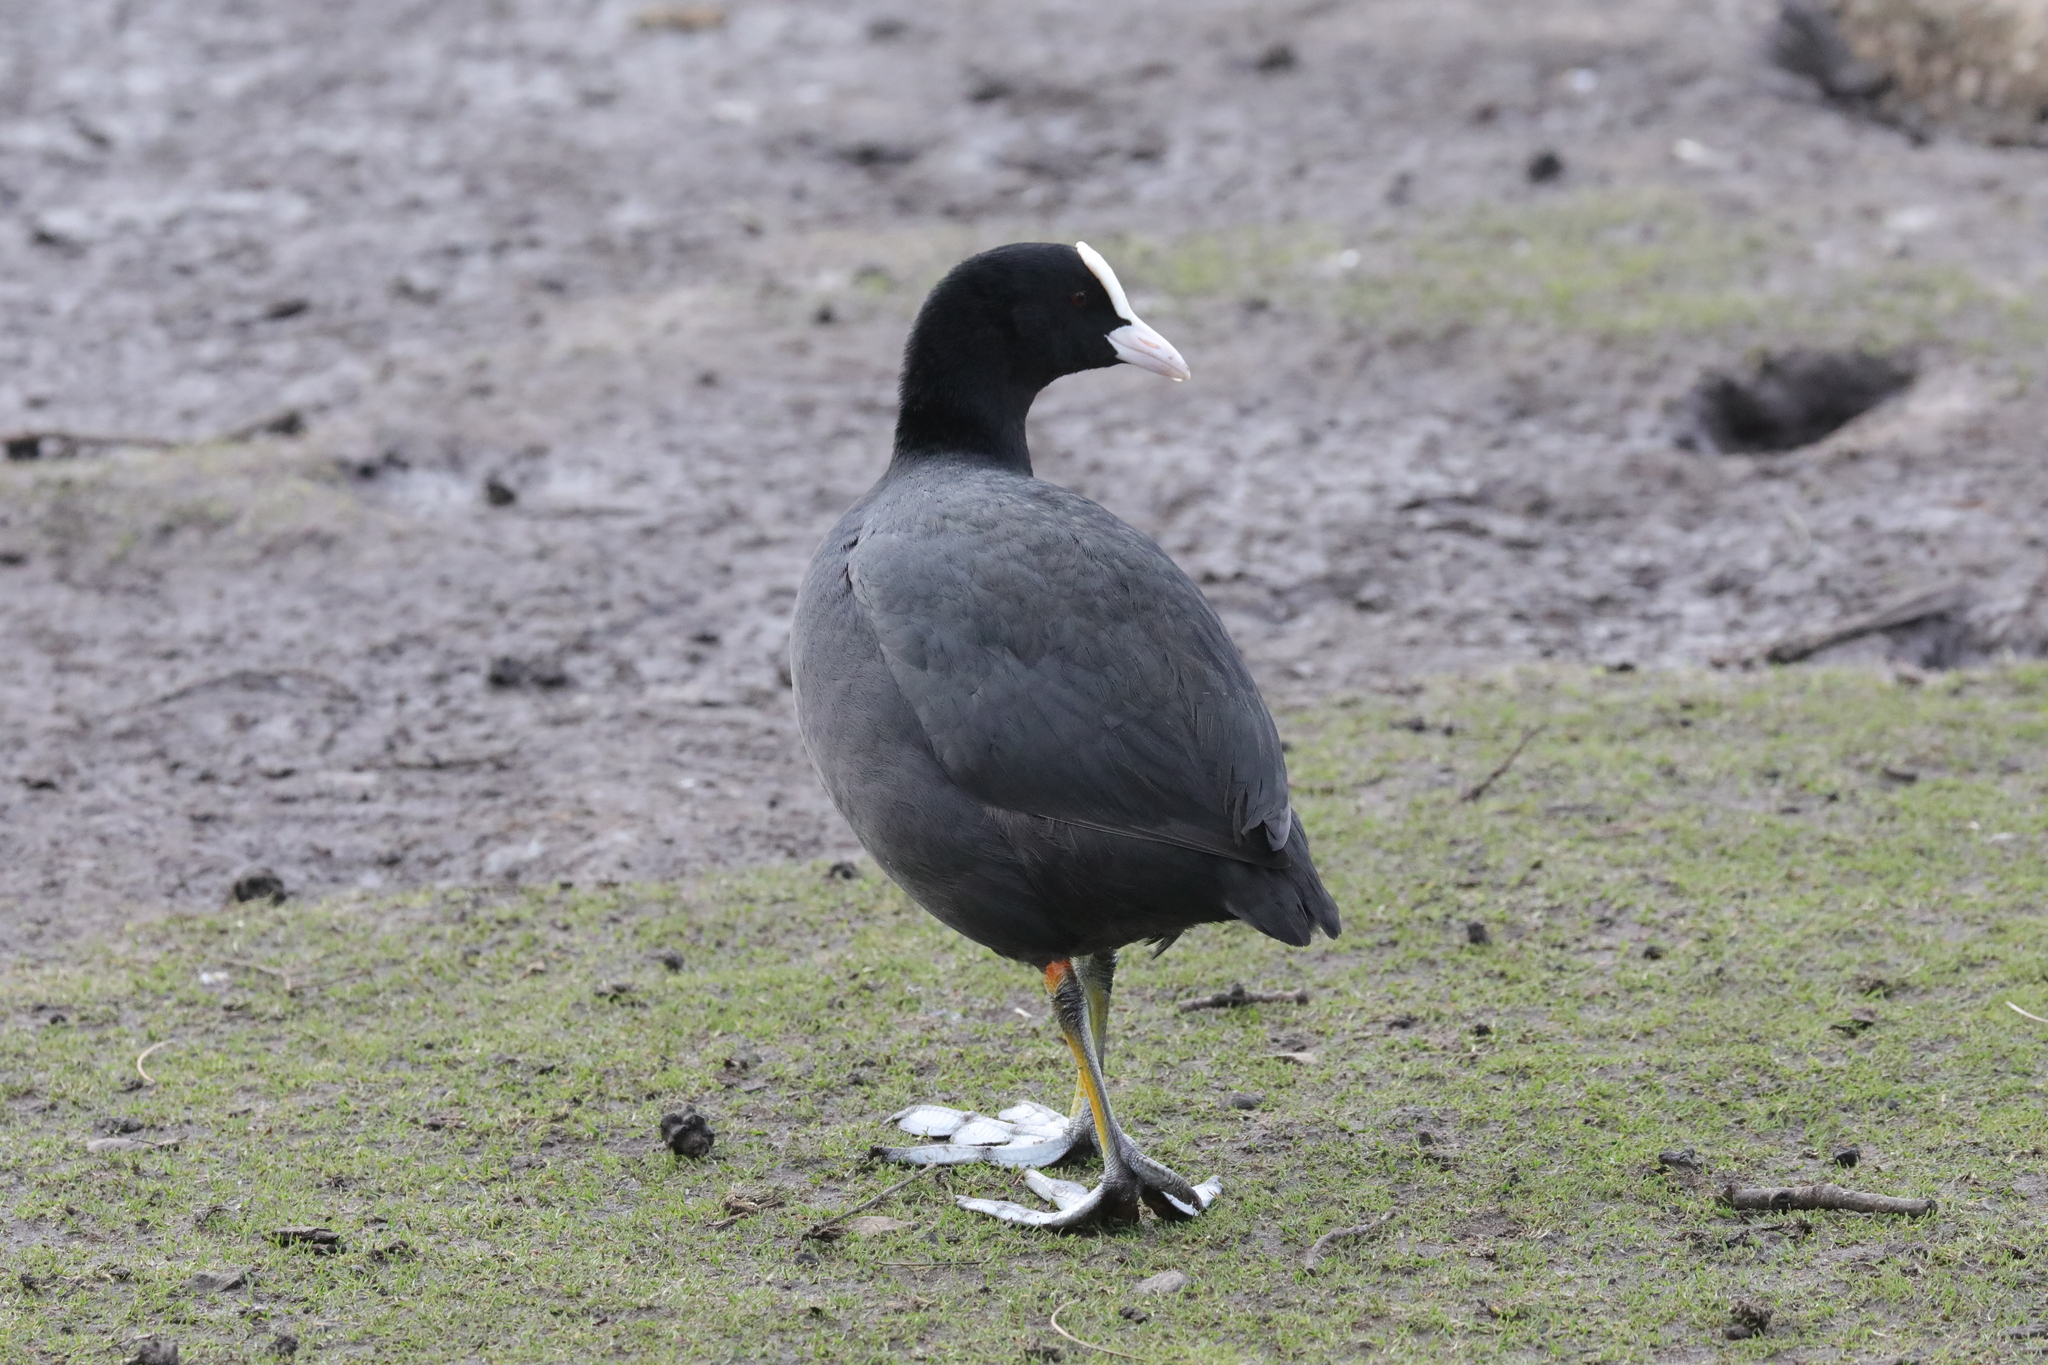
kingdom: Animalia
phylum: Chordata
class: Aves
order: Gruiformes
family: Rallidae
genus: Fulica
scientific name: Fulica atra
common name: Eurasian coot
